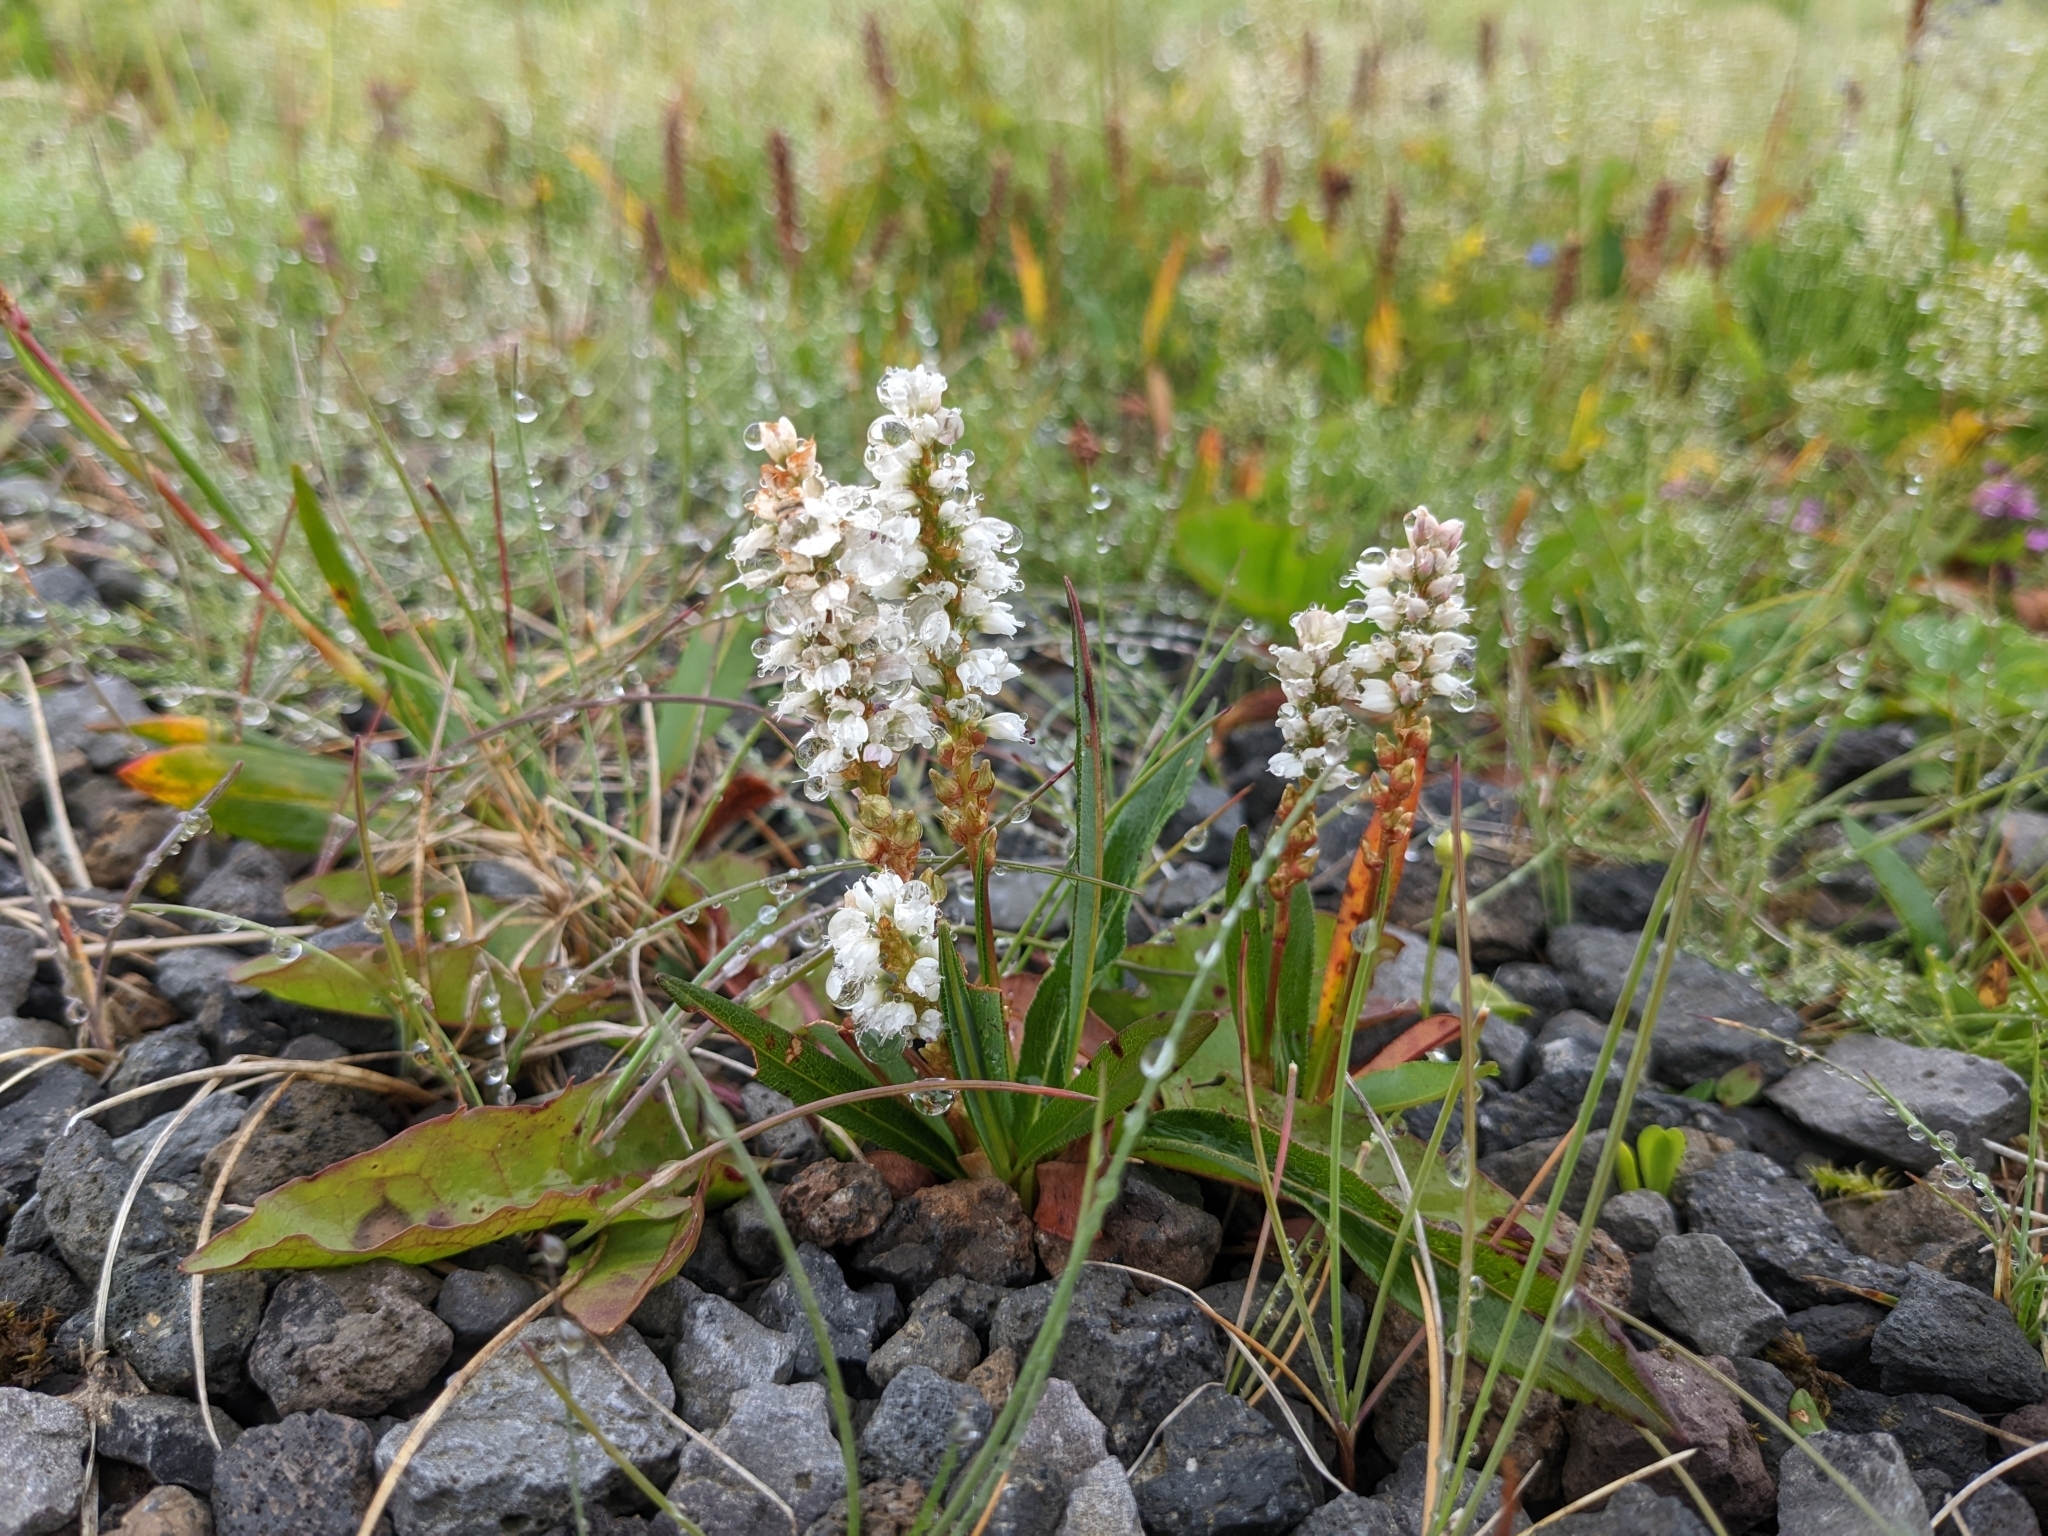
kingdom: Plantae
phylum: Tracheophyta
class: Magnoliopsida
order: Caryophyllales
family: Polygonaceae
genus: Bistorta
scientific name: Bistorta vivipara
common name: Alpine bistort
